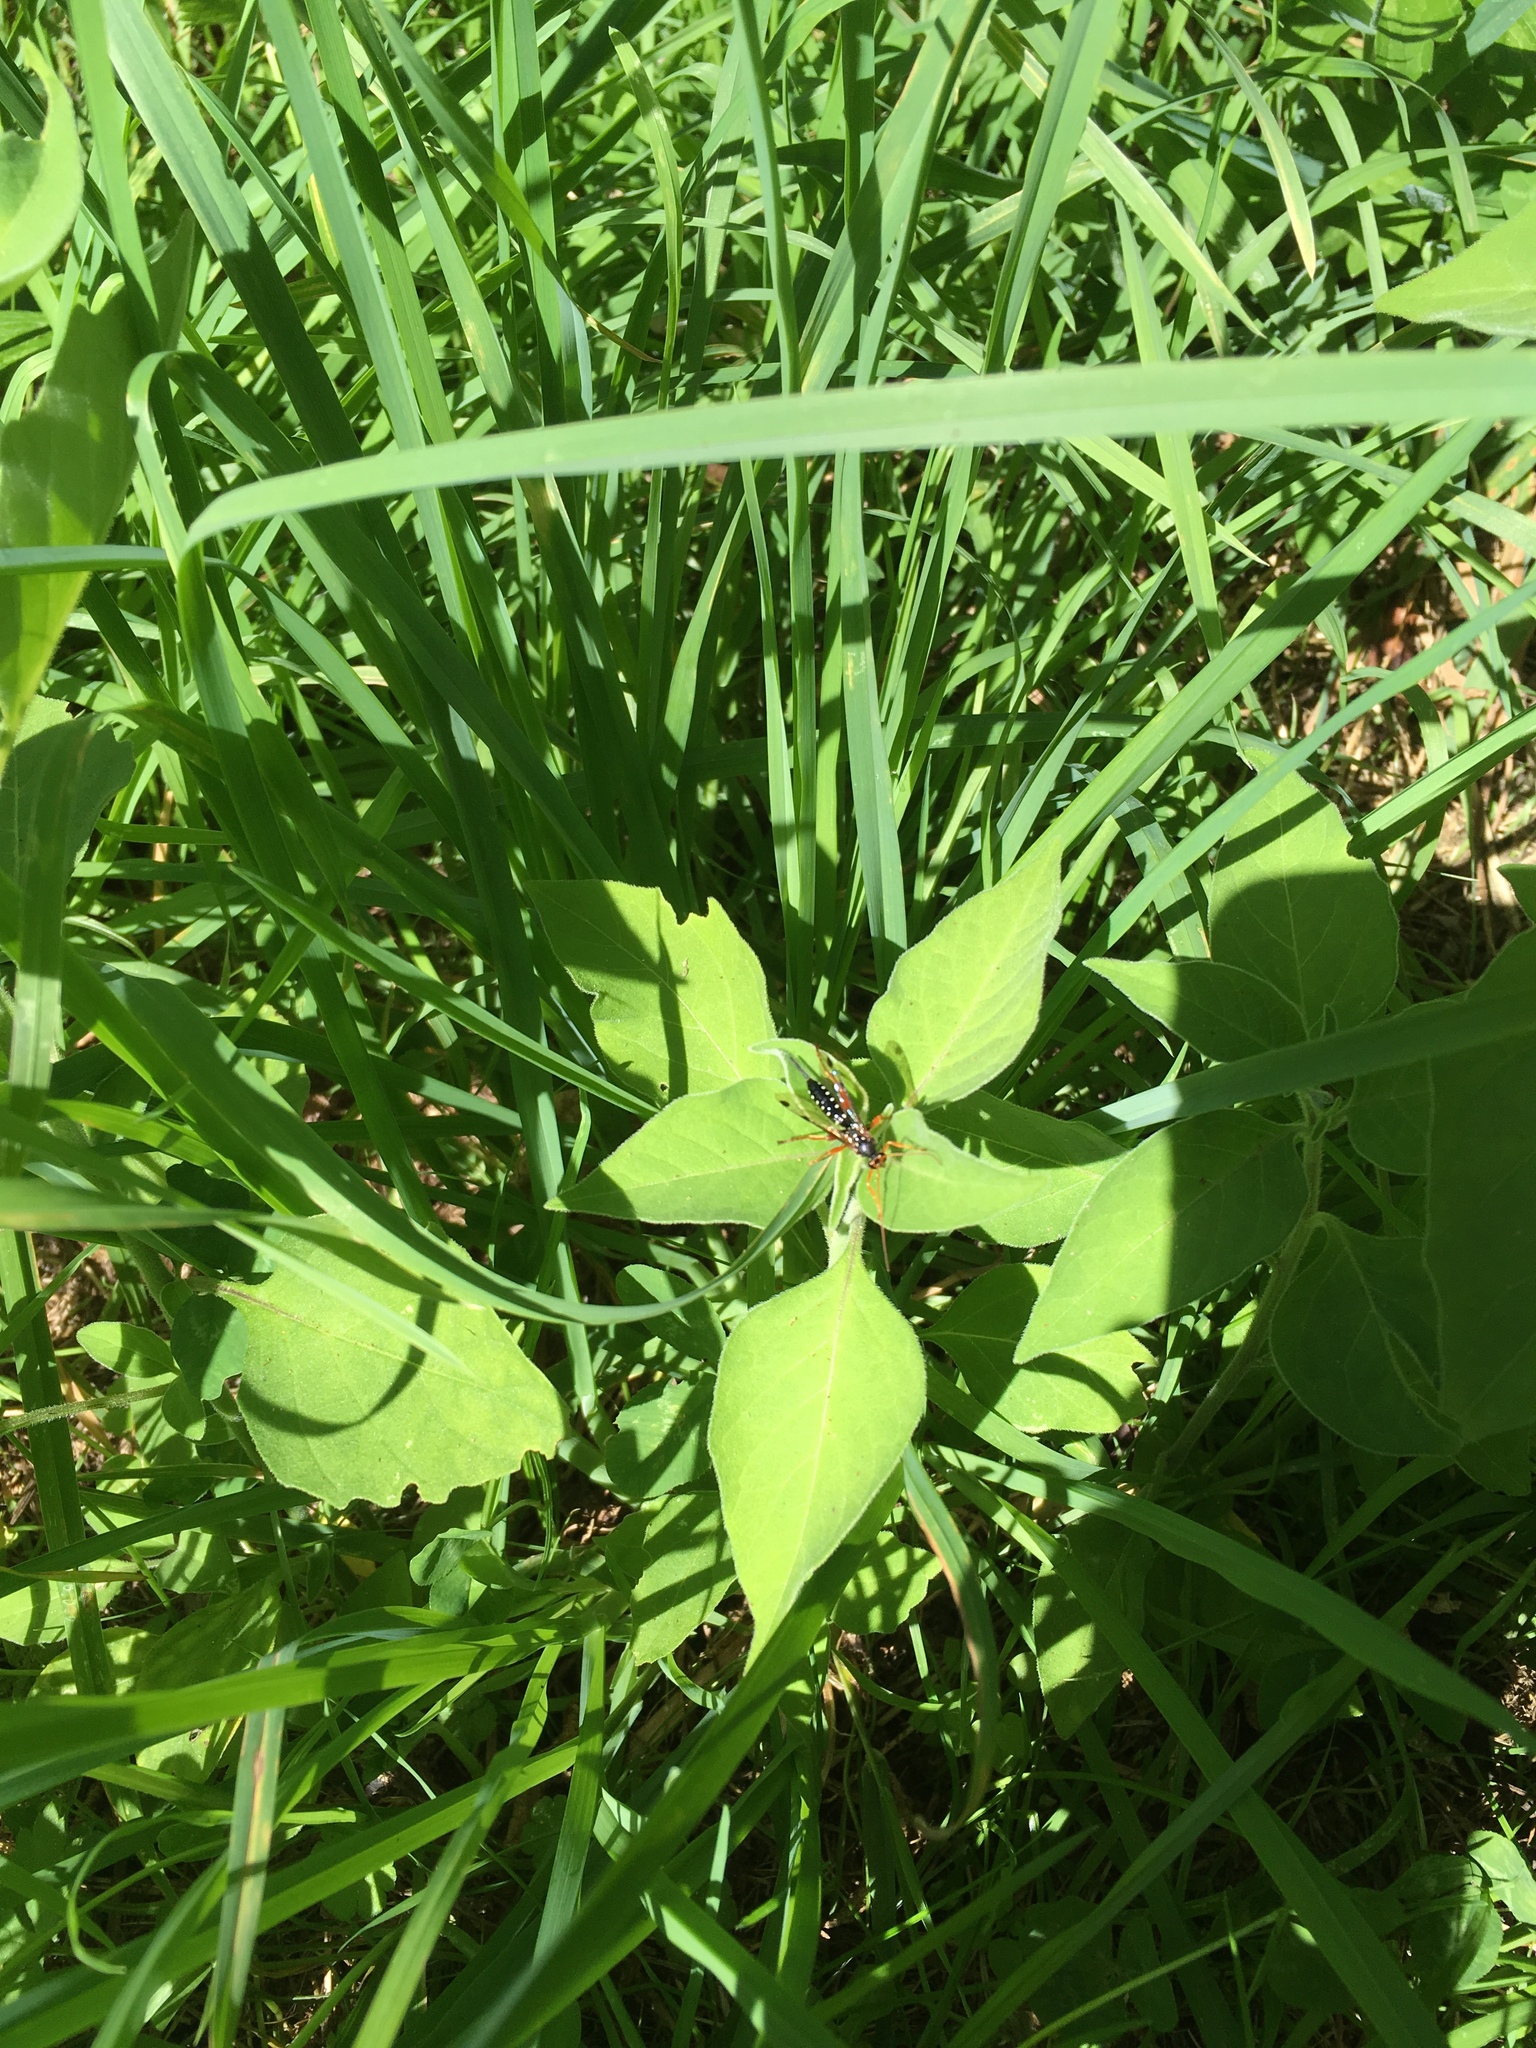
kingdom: Animalia
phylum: Arthropoda
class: Insecta
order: Hymenoptera
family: Ichneumonidae
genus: Echthromorpha
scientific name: Echthromorpha intricatoria
